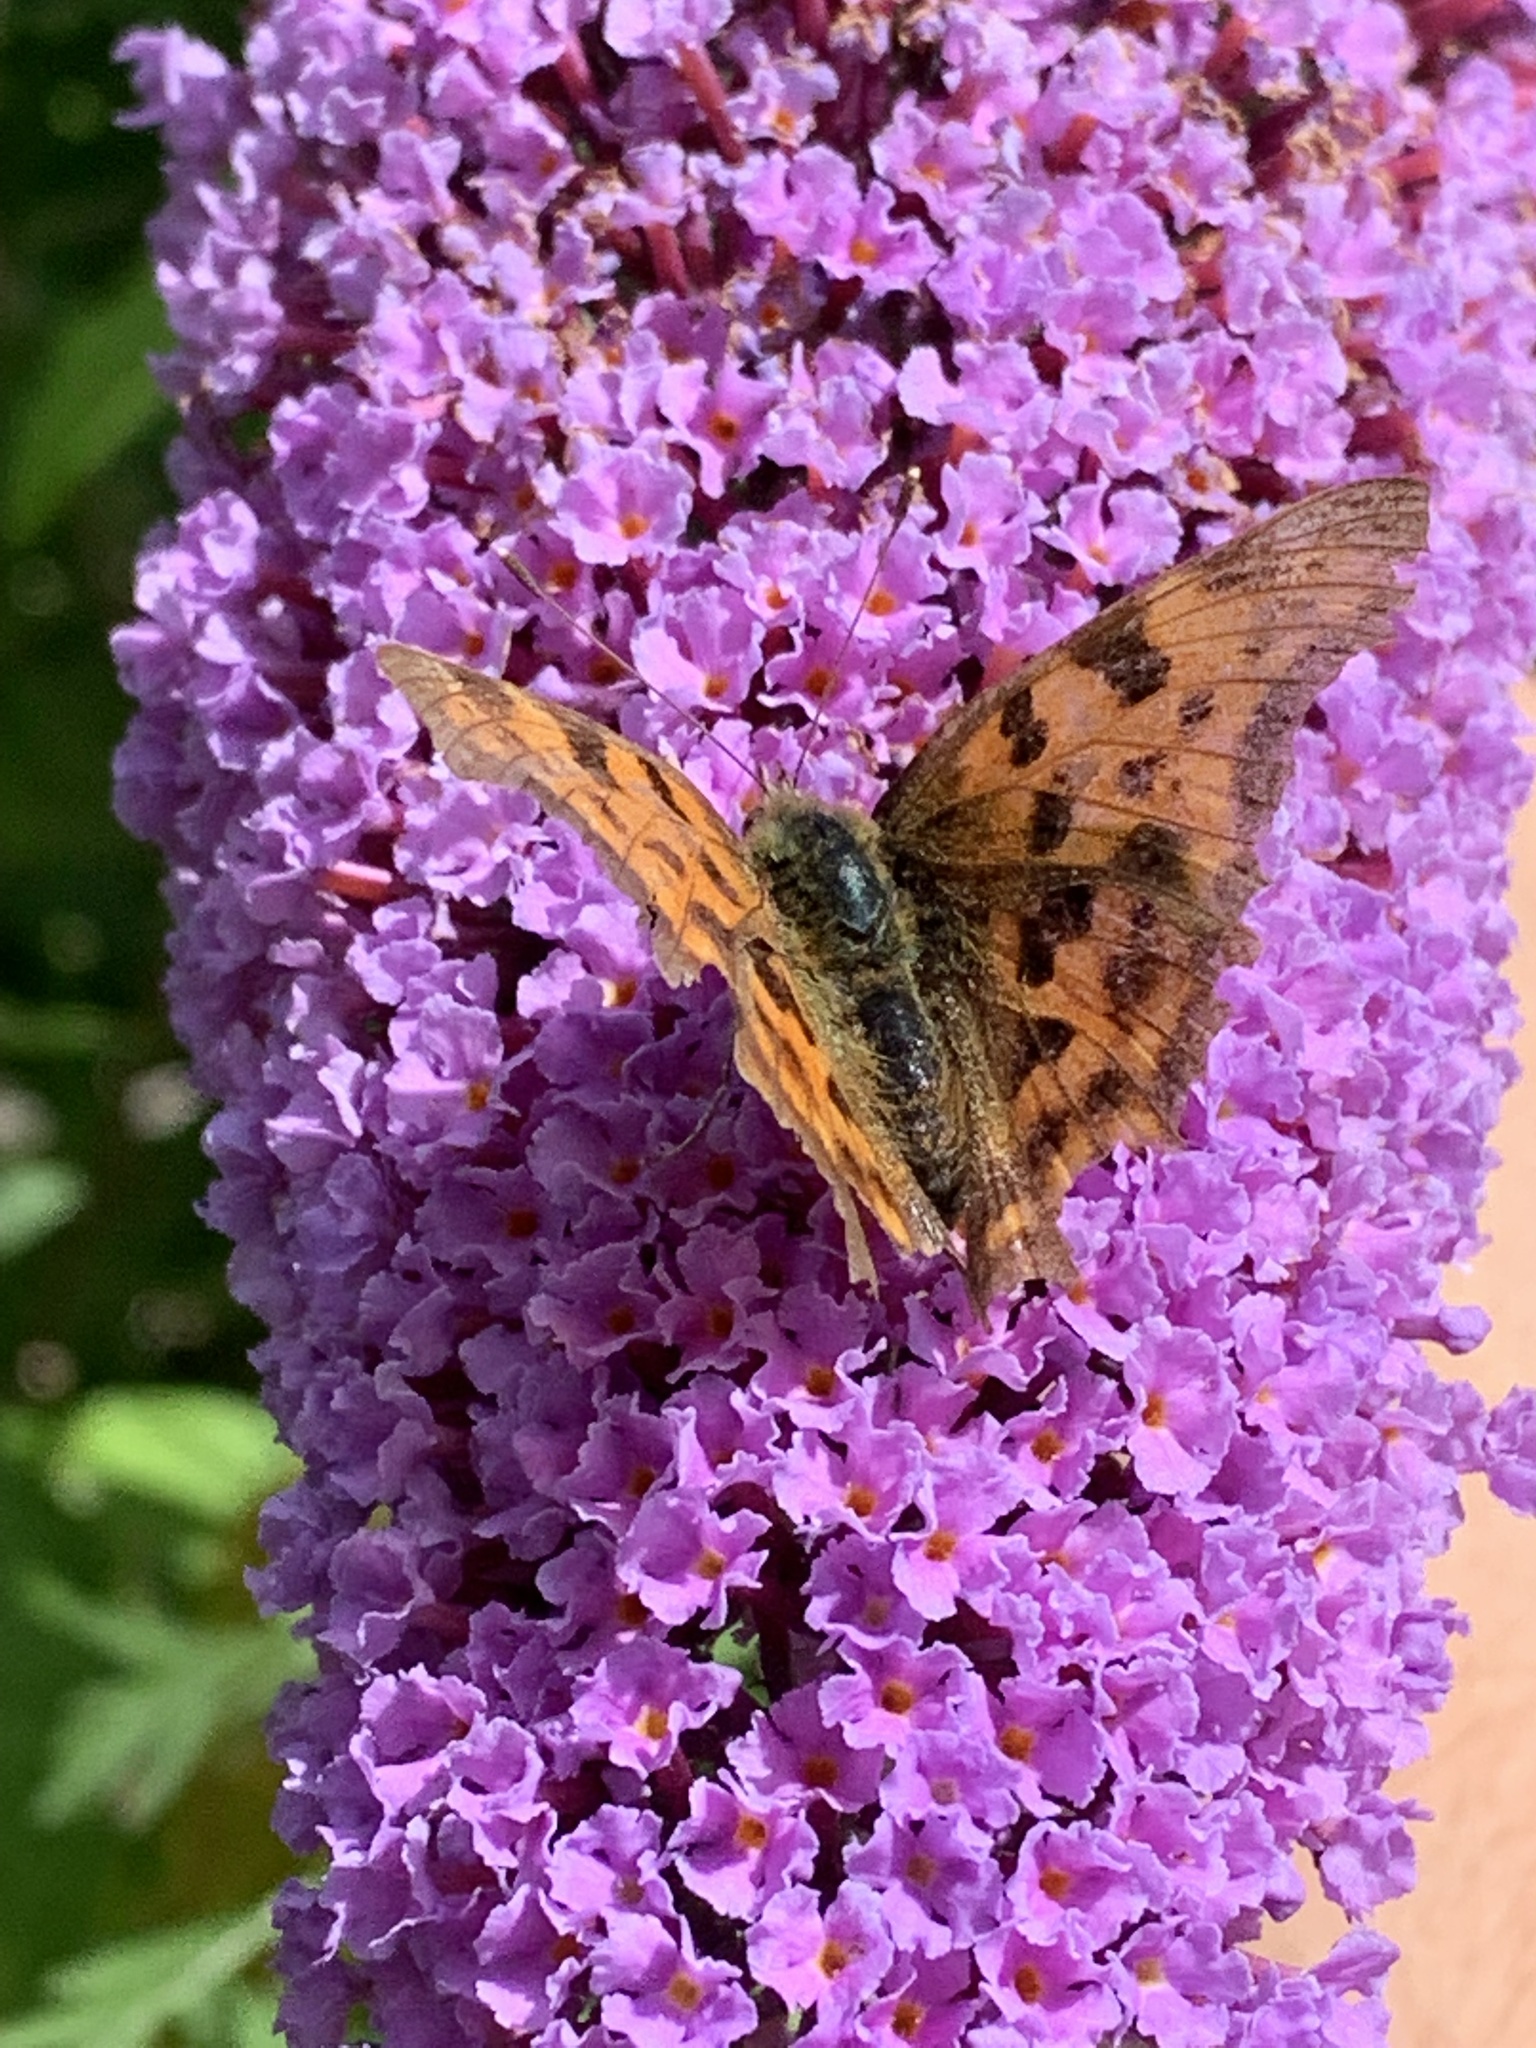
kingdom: Animalia
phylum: Arthropoda
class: Insecta
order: Lepidoptera
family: Nymphalidae
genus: Polygonia
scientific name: Polygonia c-album
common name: Comma
